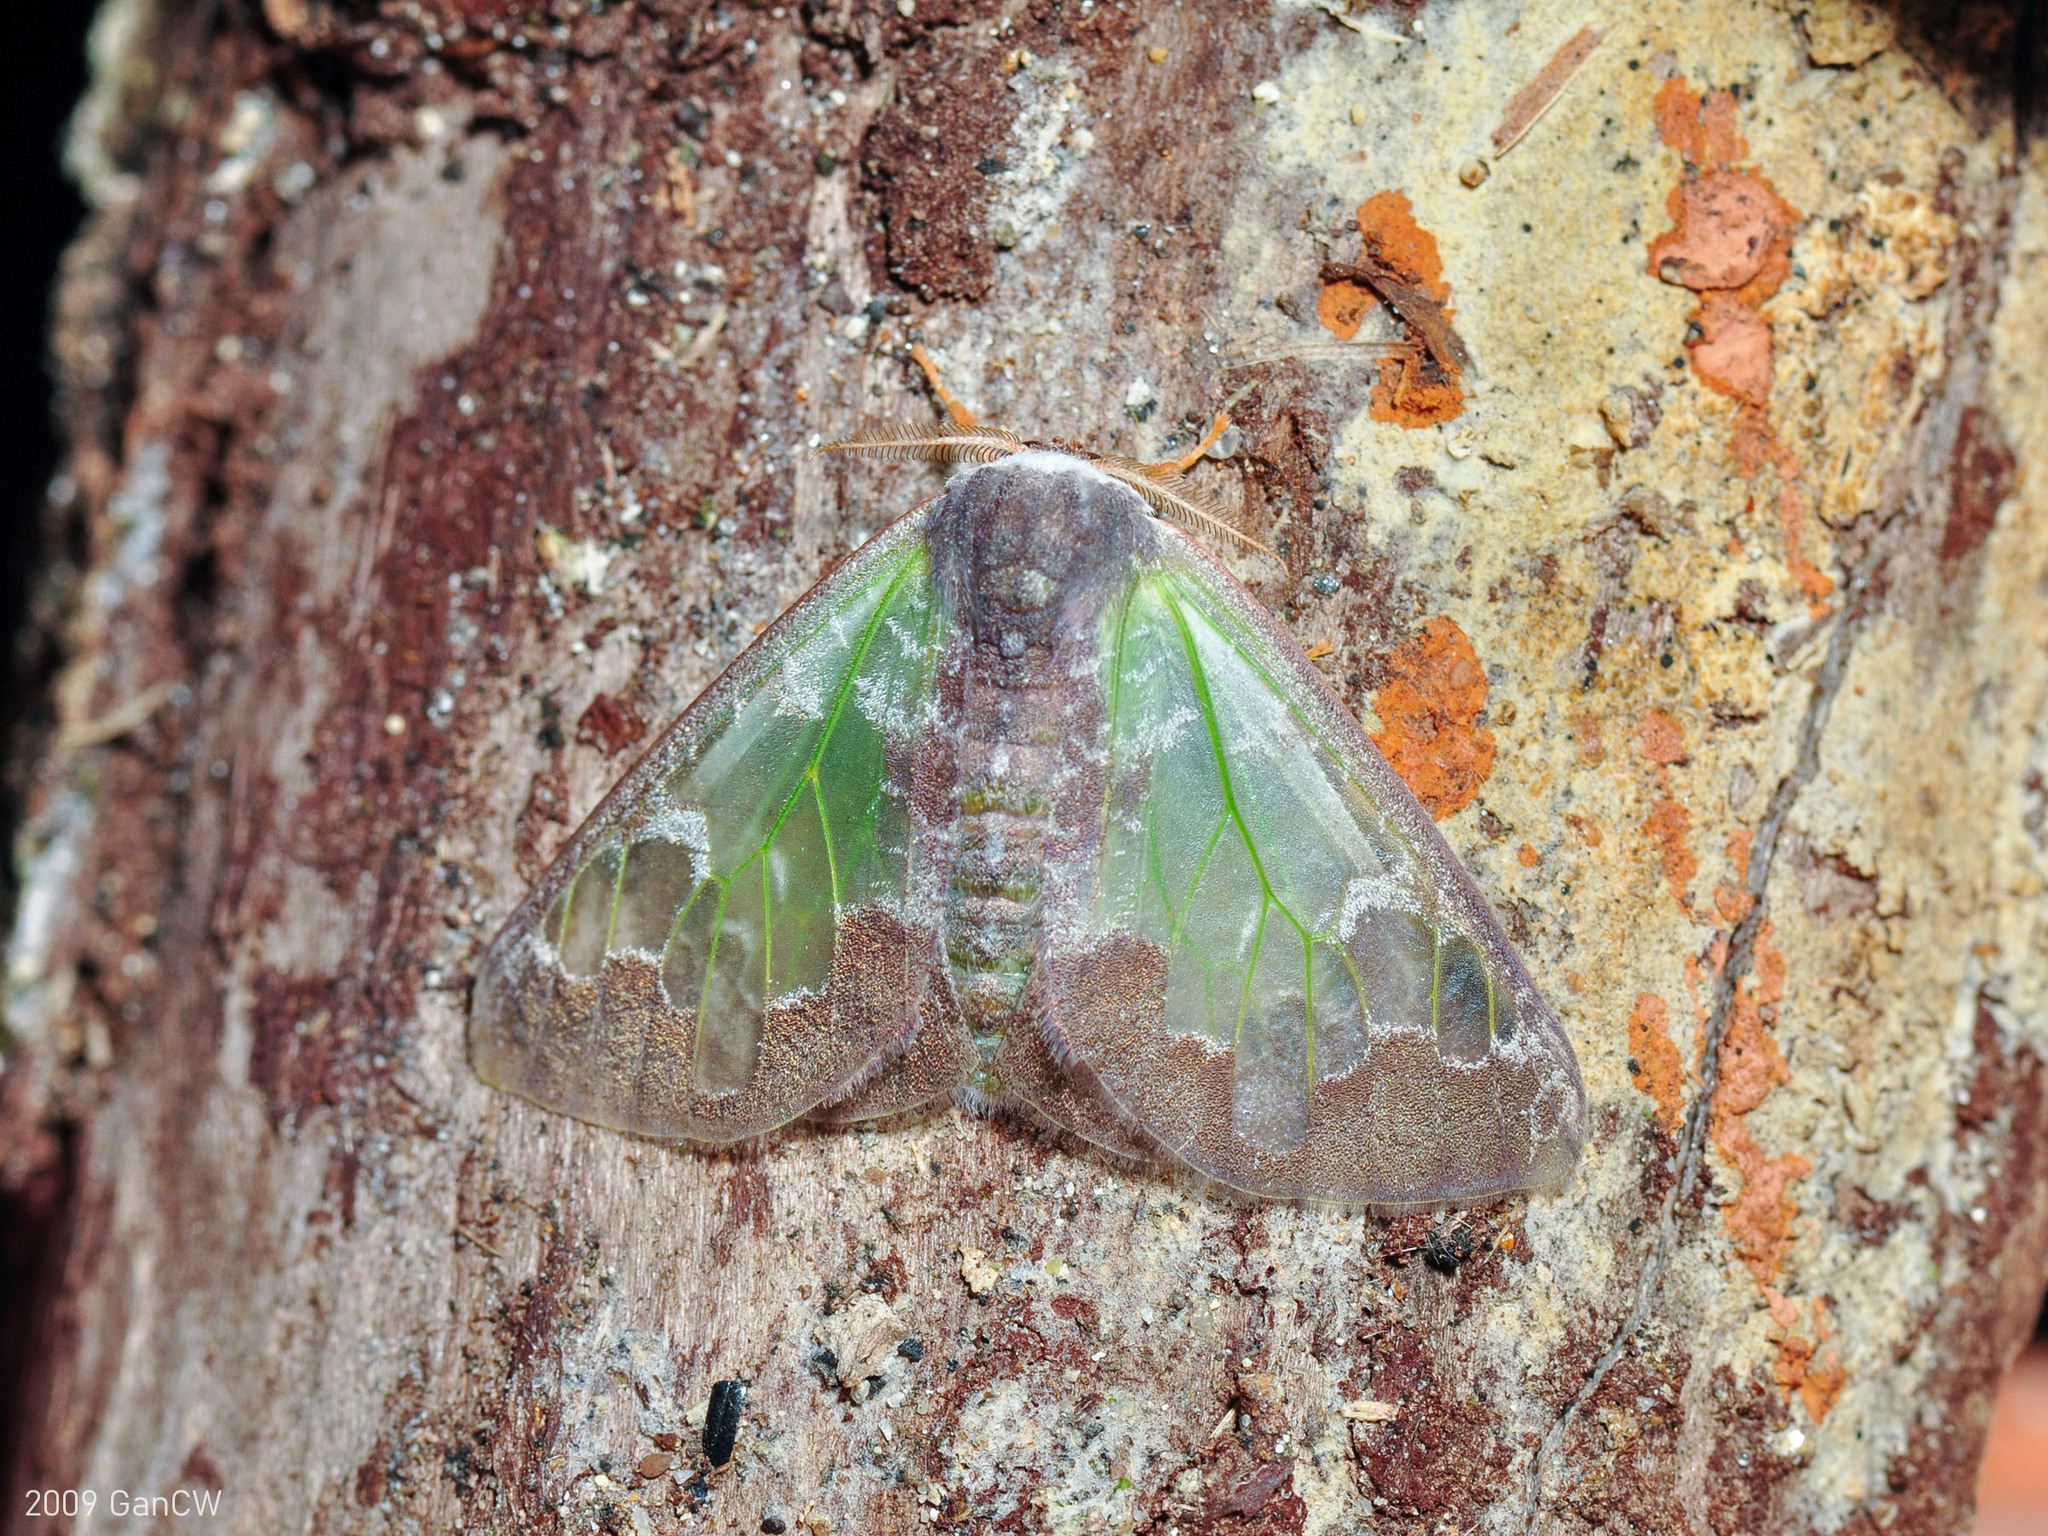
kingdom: Animalia
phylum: Arthropoda
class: Insecta
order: Lepidoptera
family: Erebidae
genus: Carriola
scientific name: Carriola thyridophora
